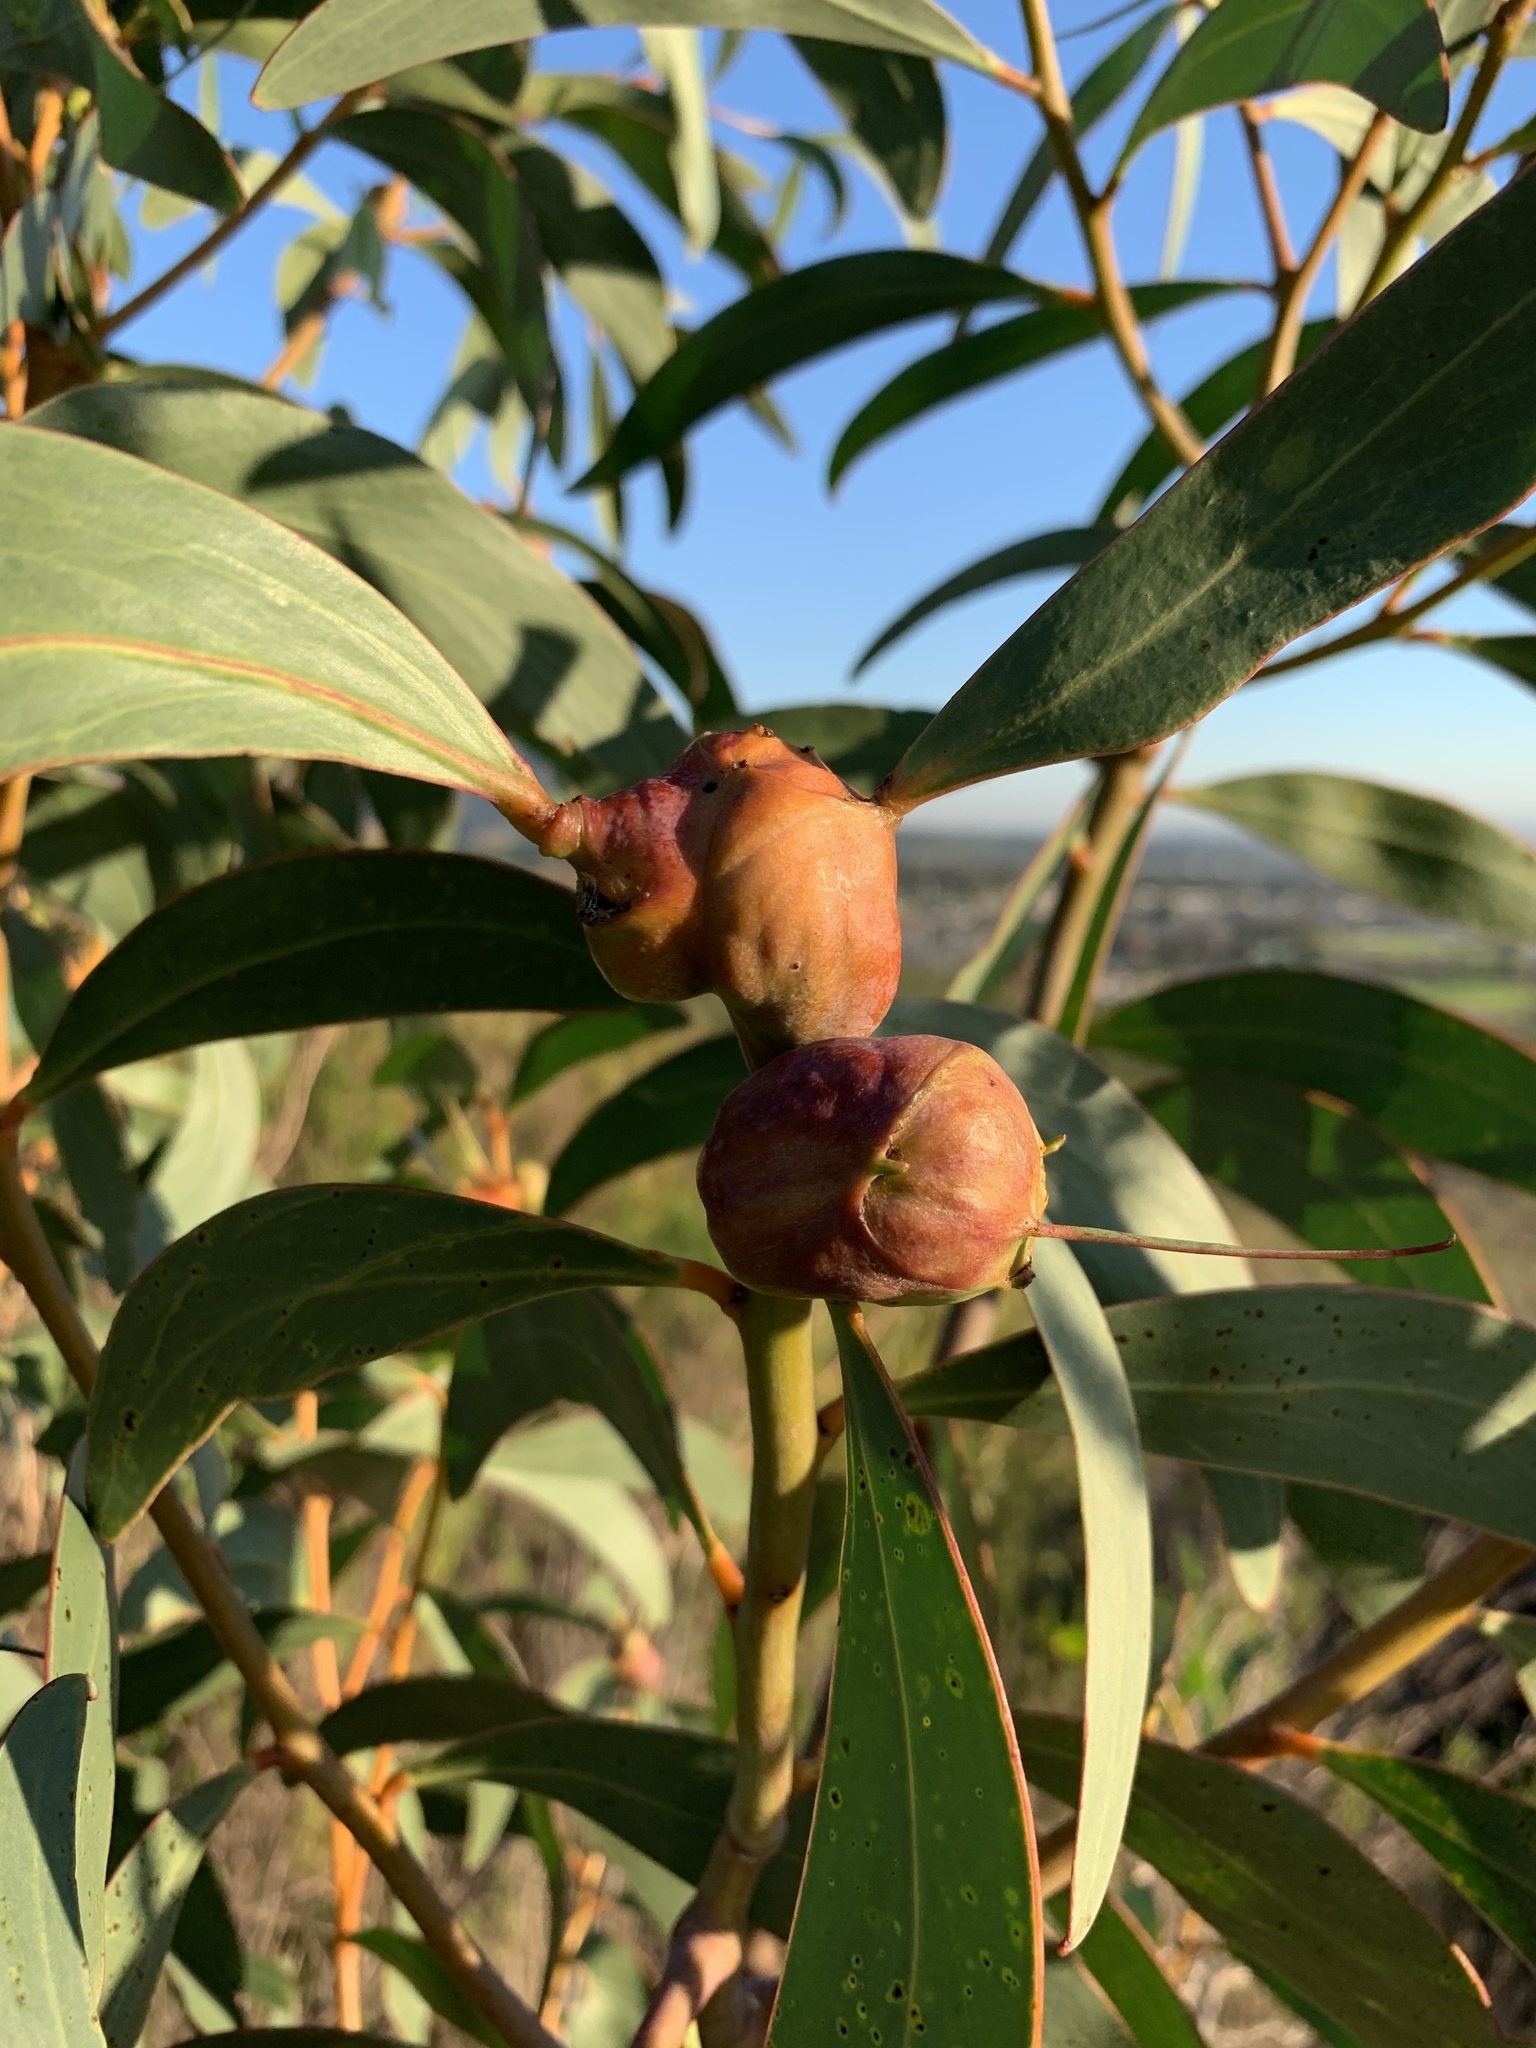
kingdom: Animalia
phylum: Arthropoda
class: Insecta
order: Hymenoptera
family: Pteromalidae
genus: Trichilogaster
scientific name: Trichilogaster signiventris
